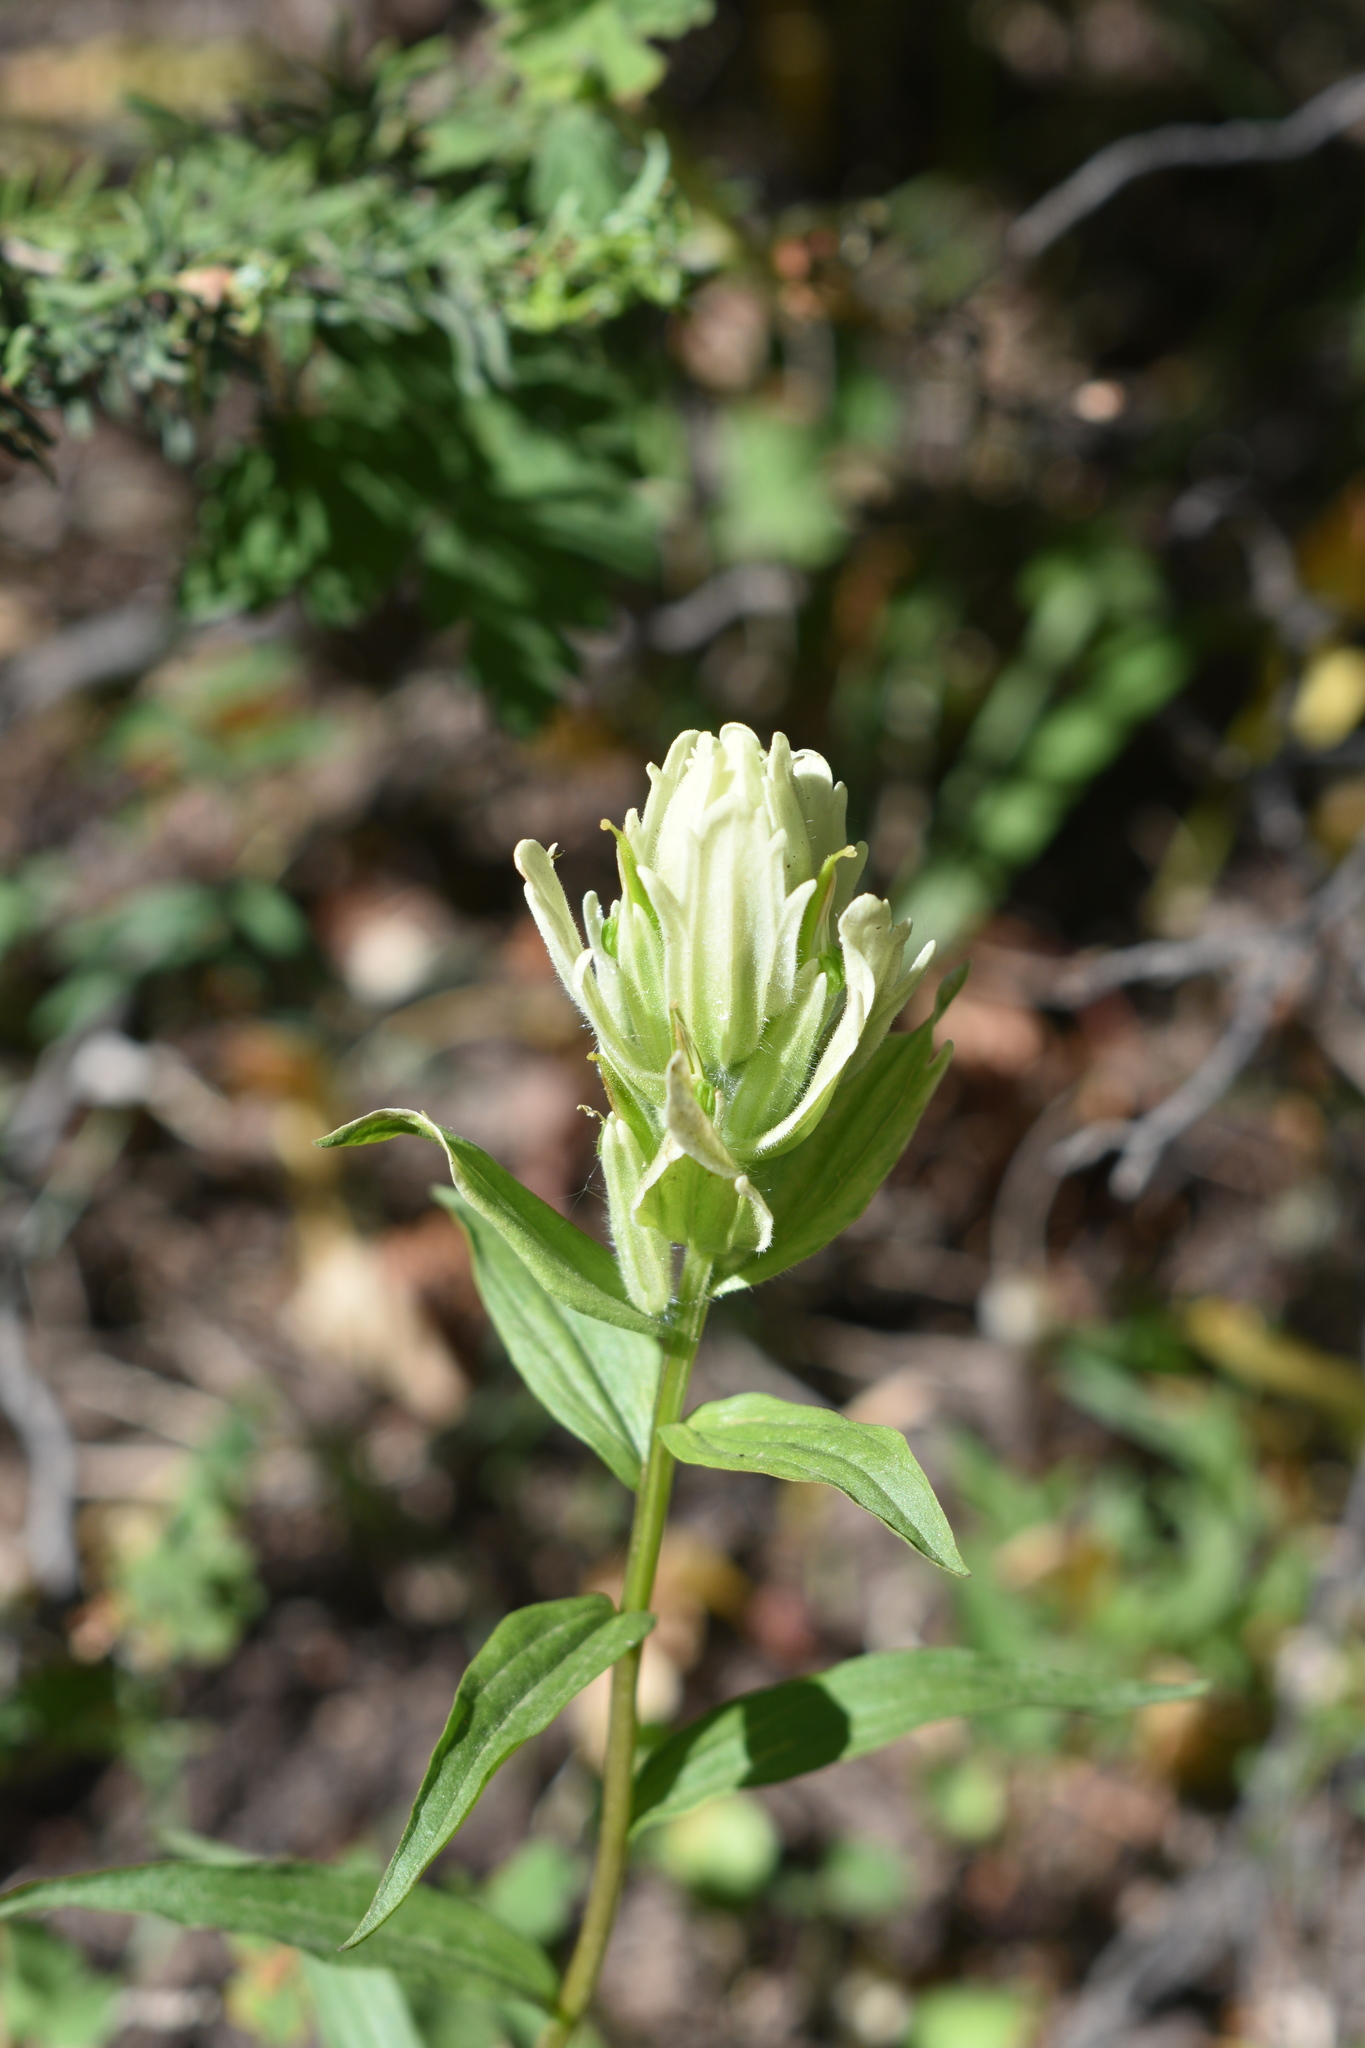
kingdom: Plantae
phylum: Tracheophyta
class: Magnoliopsida
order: Lamiales
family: Orobanchaceae
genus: Castilleja
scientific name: Castilleja septentrionalis
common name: Northeastern paintbrush
